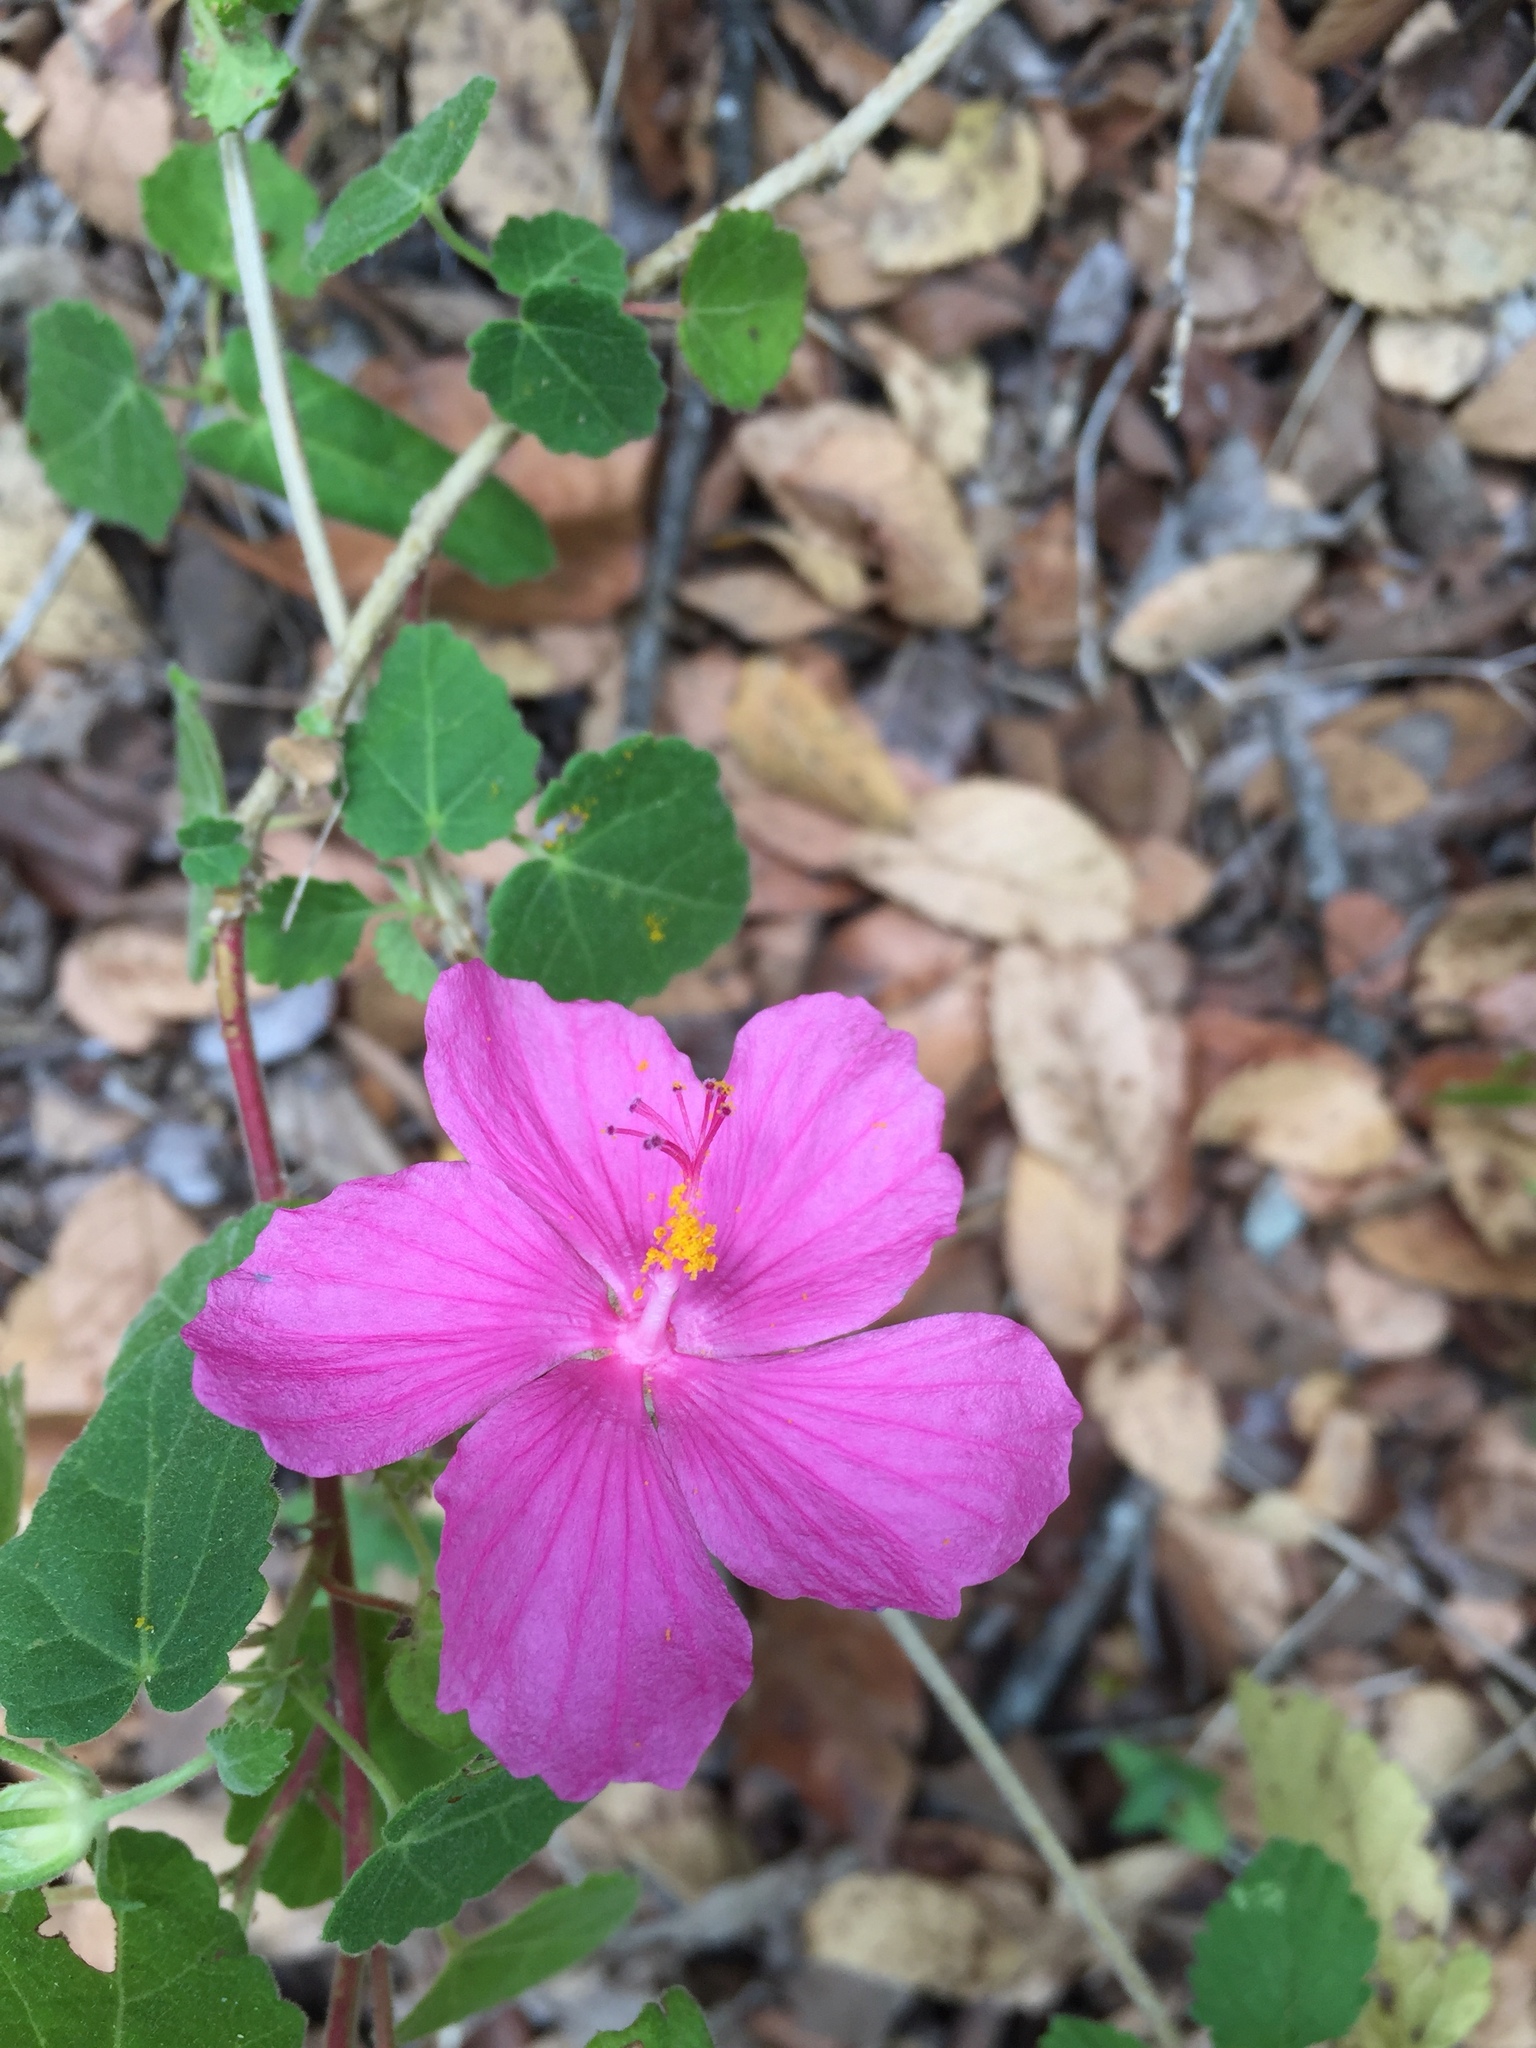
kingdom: Plantae
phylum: Tracheophyta
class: Magnoliopsida
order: Malvales
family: Malvaceae
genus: Pavonia
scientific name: Pavonia lasiopetala
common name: Texas swamp-mallow
